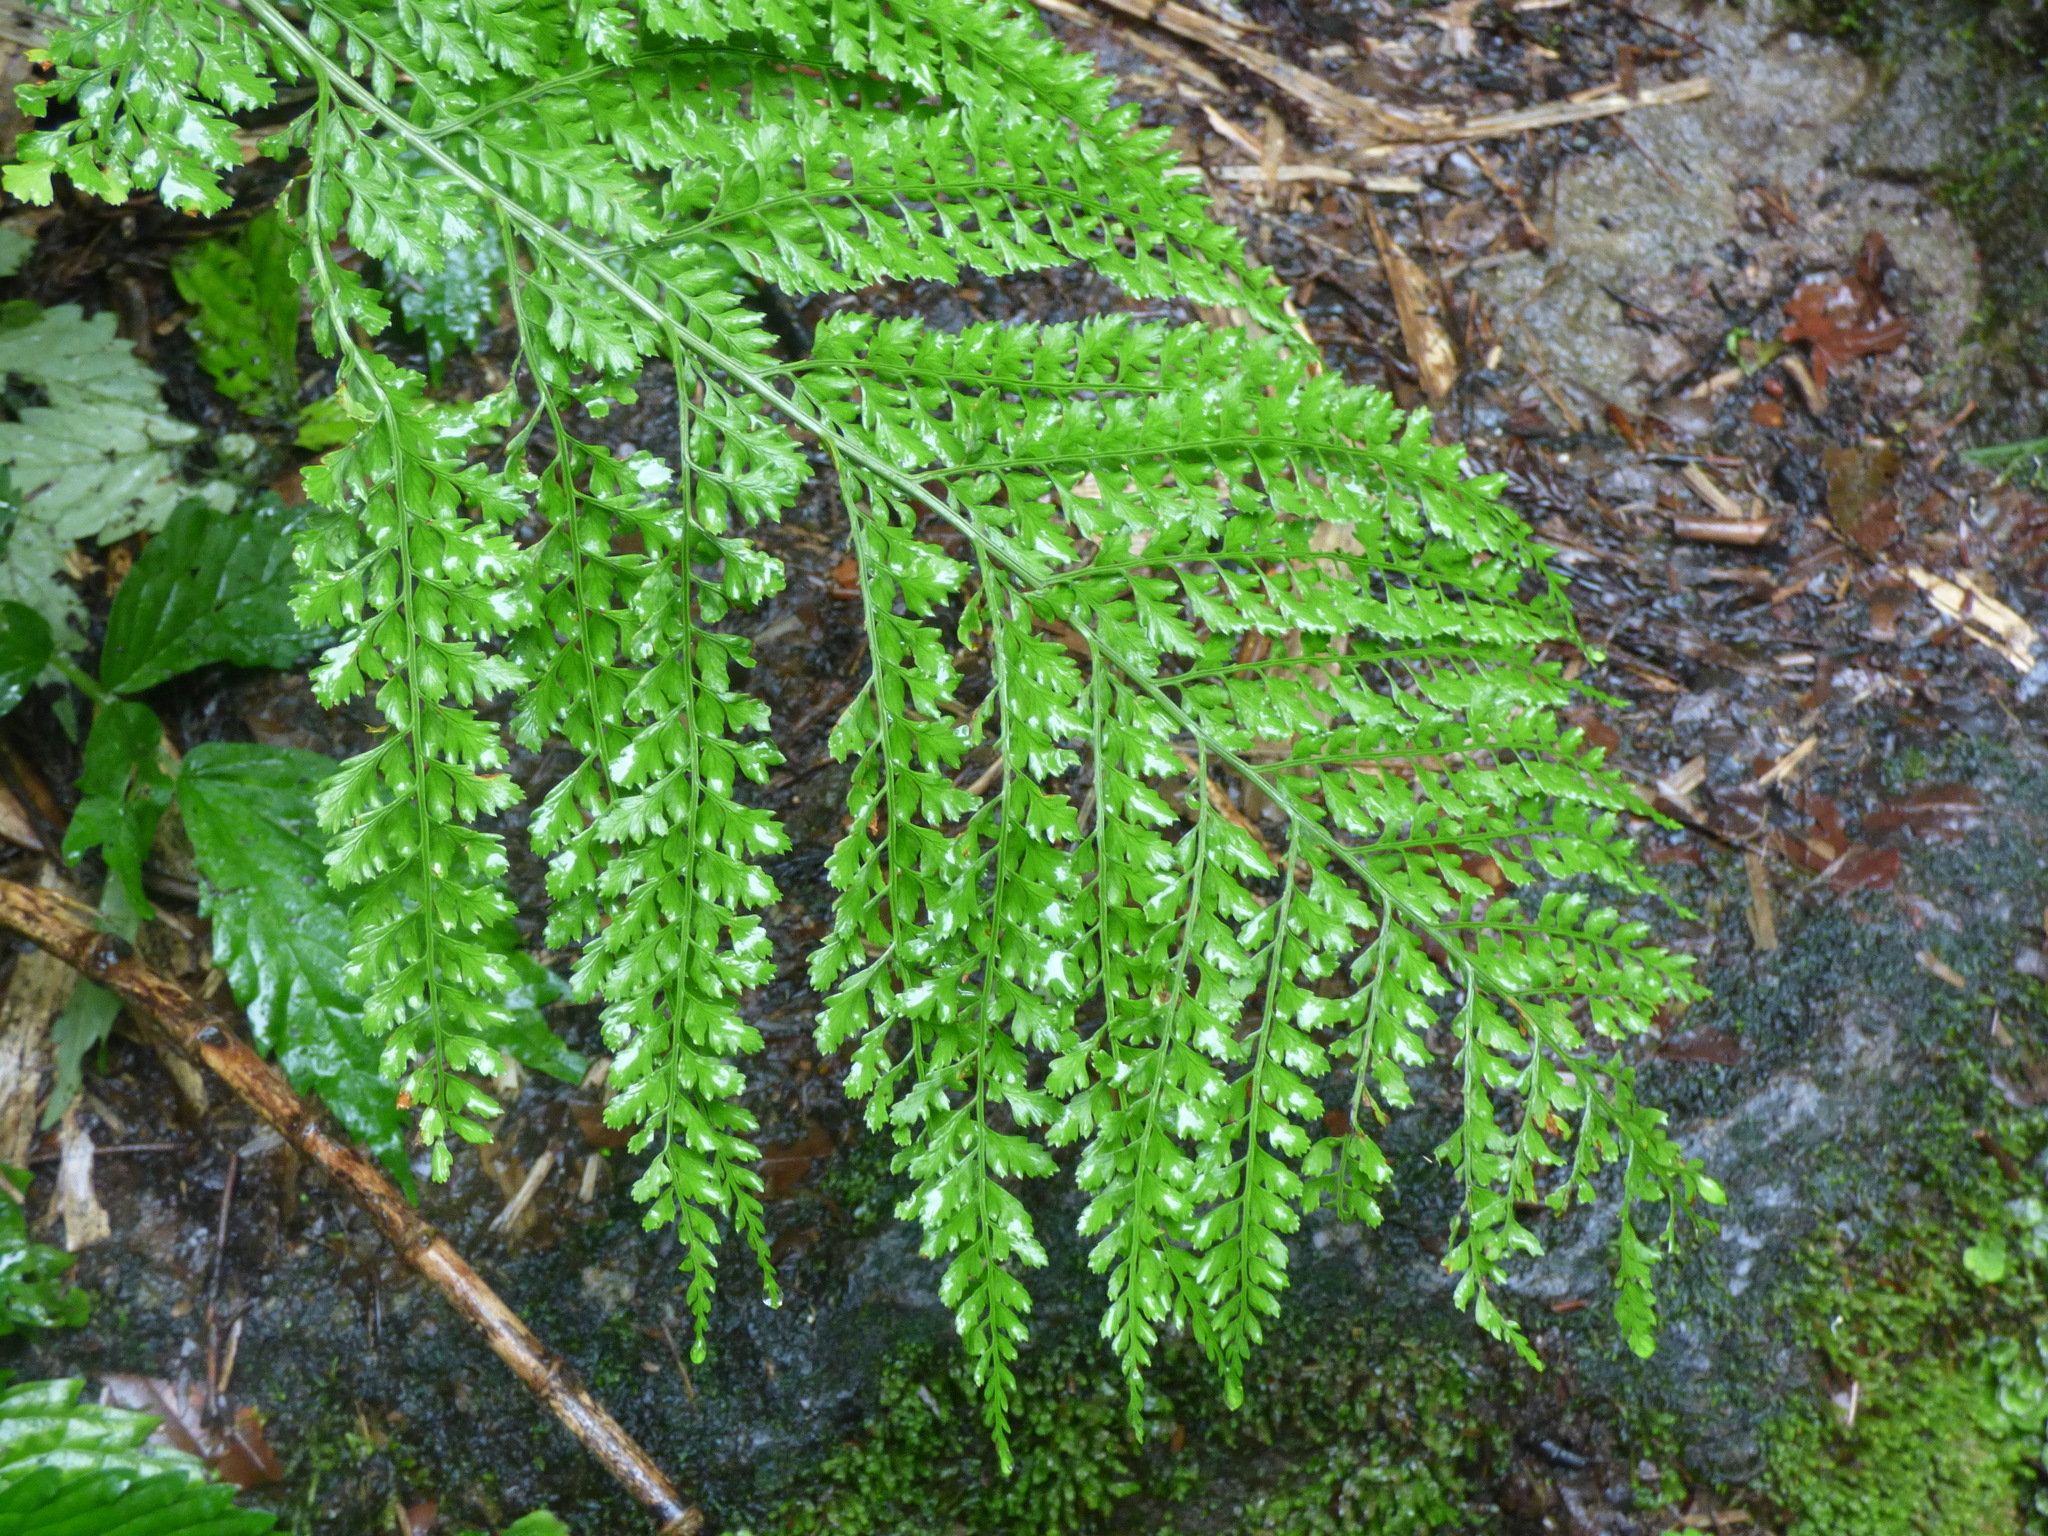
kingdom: Plantae
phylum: Tracheophyta
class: Polypodiopsida
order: Polypodiales
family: Dryopteridaceae
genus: Arachniodes
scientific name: Arachniodes standishii
